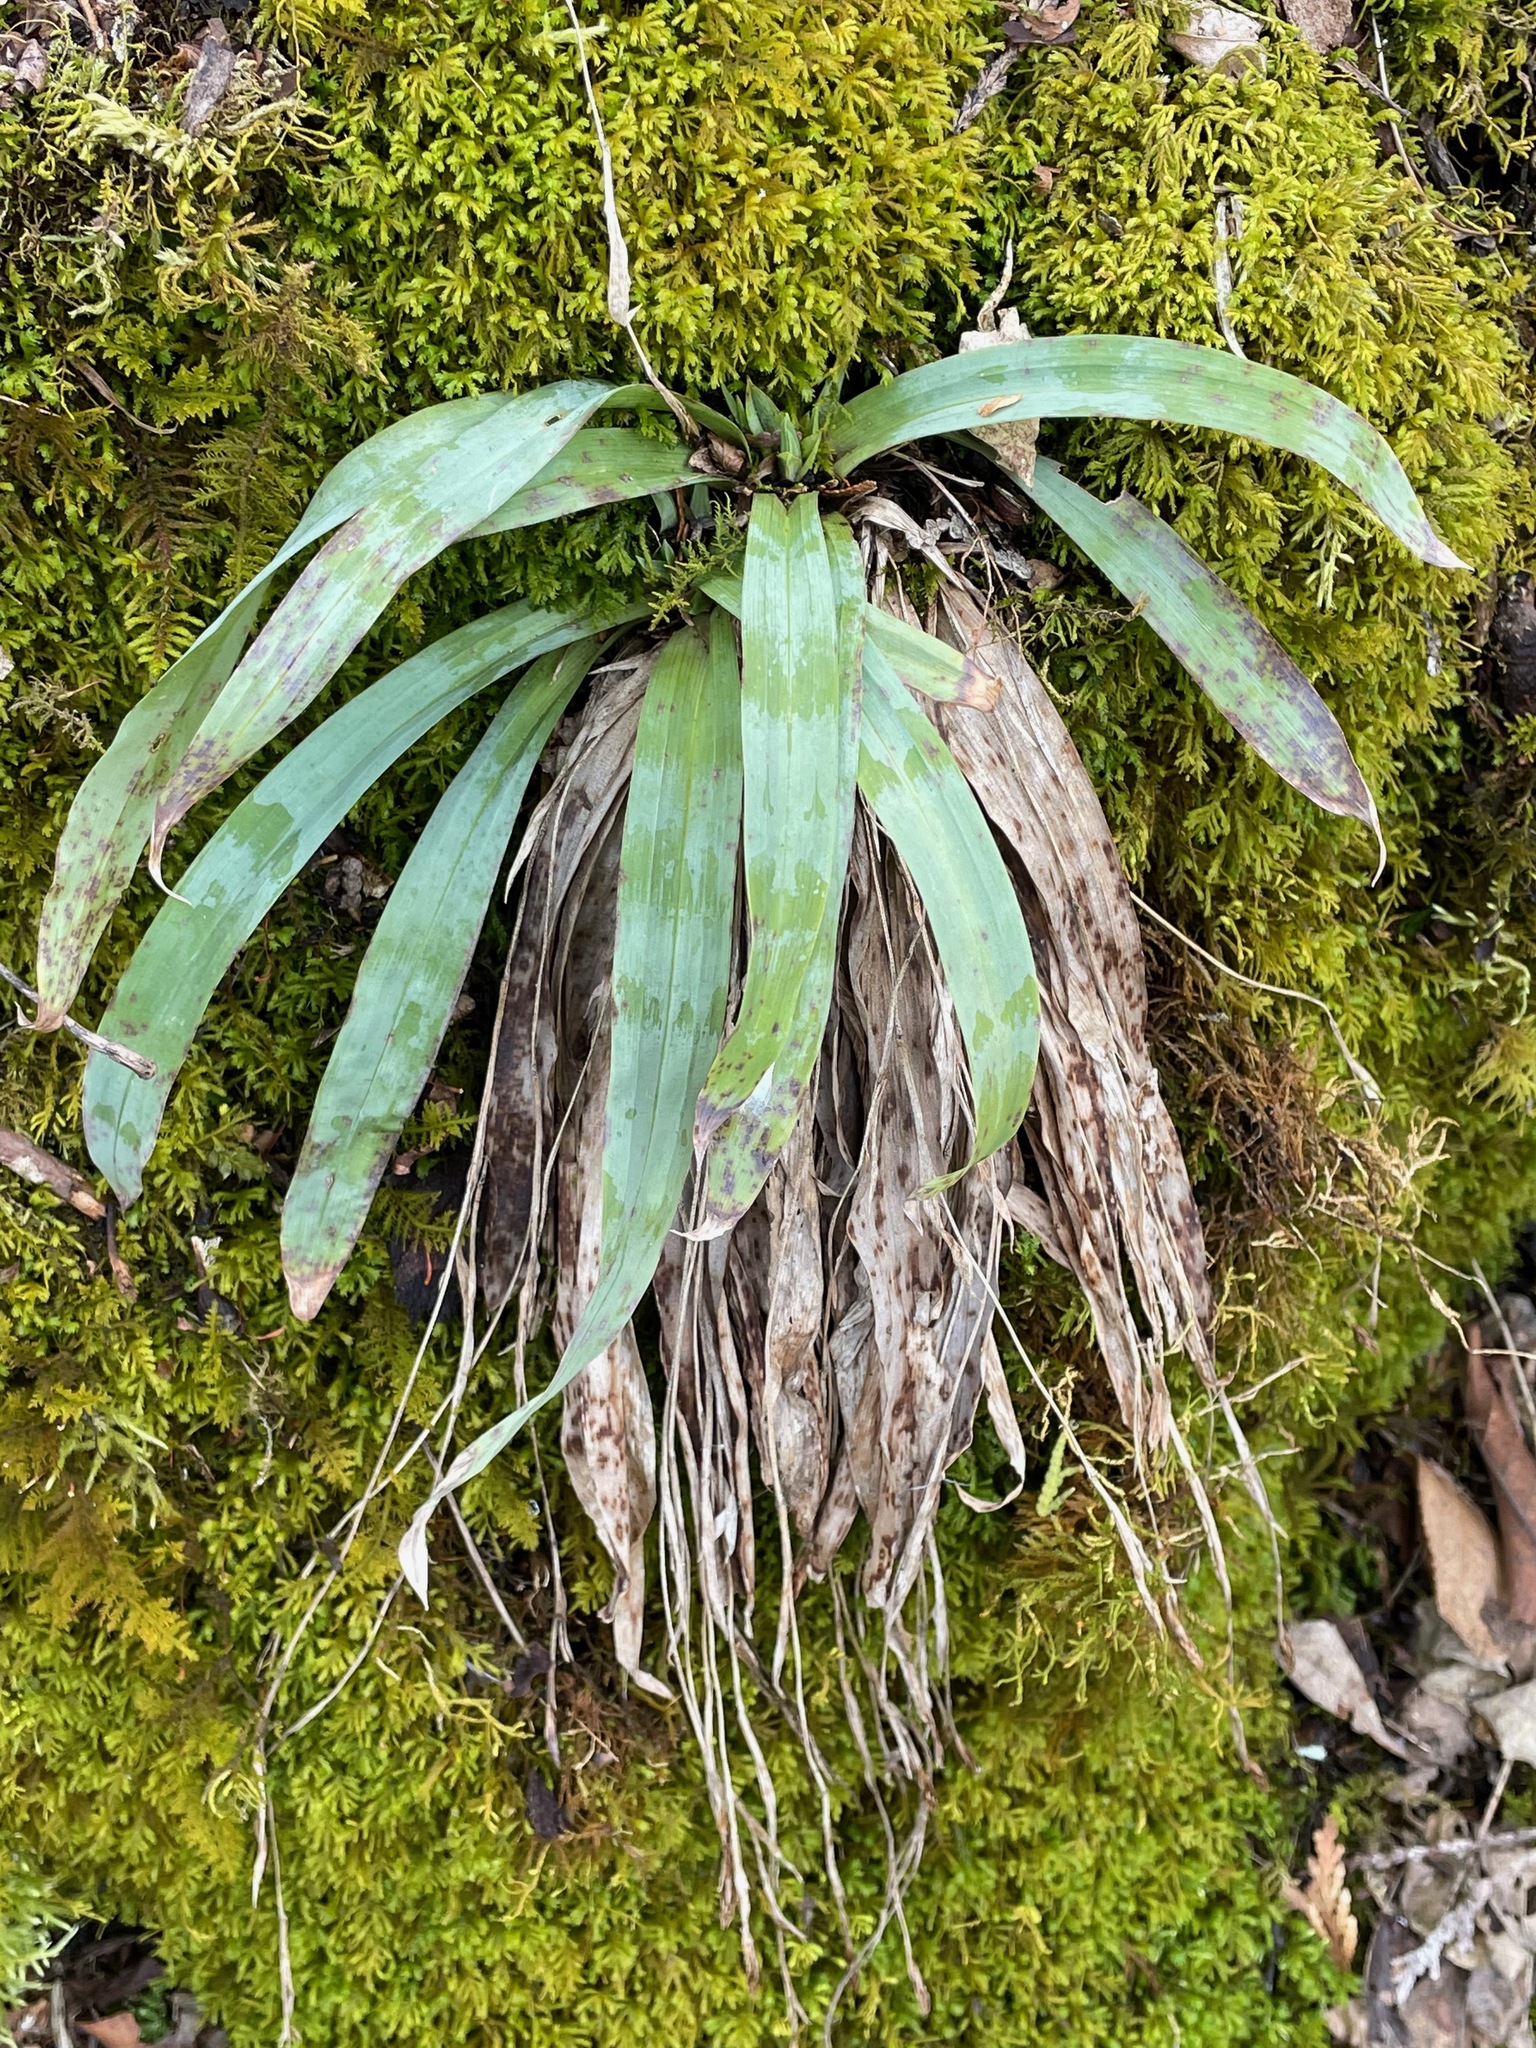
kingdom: Plantae
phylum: Tracheophyta
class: Liliopsida
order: Poales
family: Cyperaceae
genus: Carex
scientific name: Carex platyphylla
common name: Broad-leaved sedge
